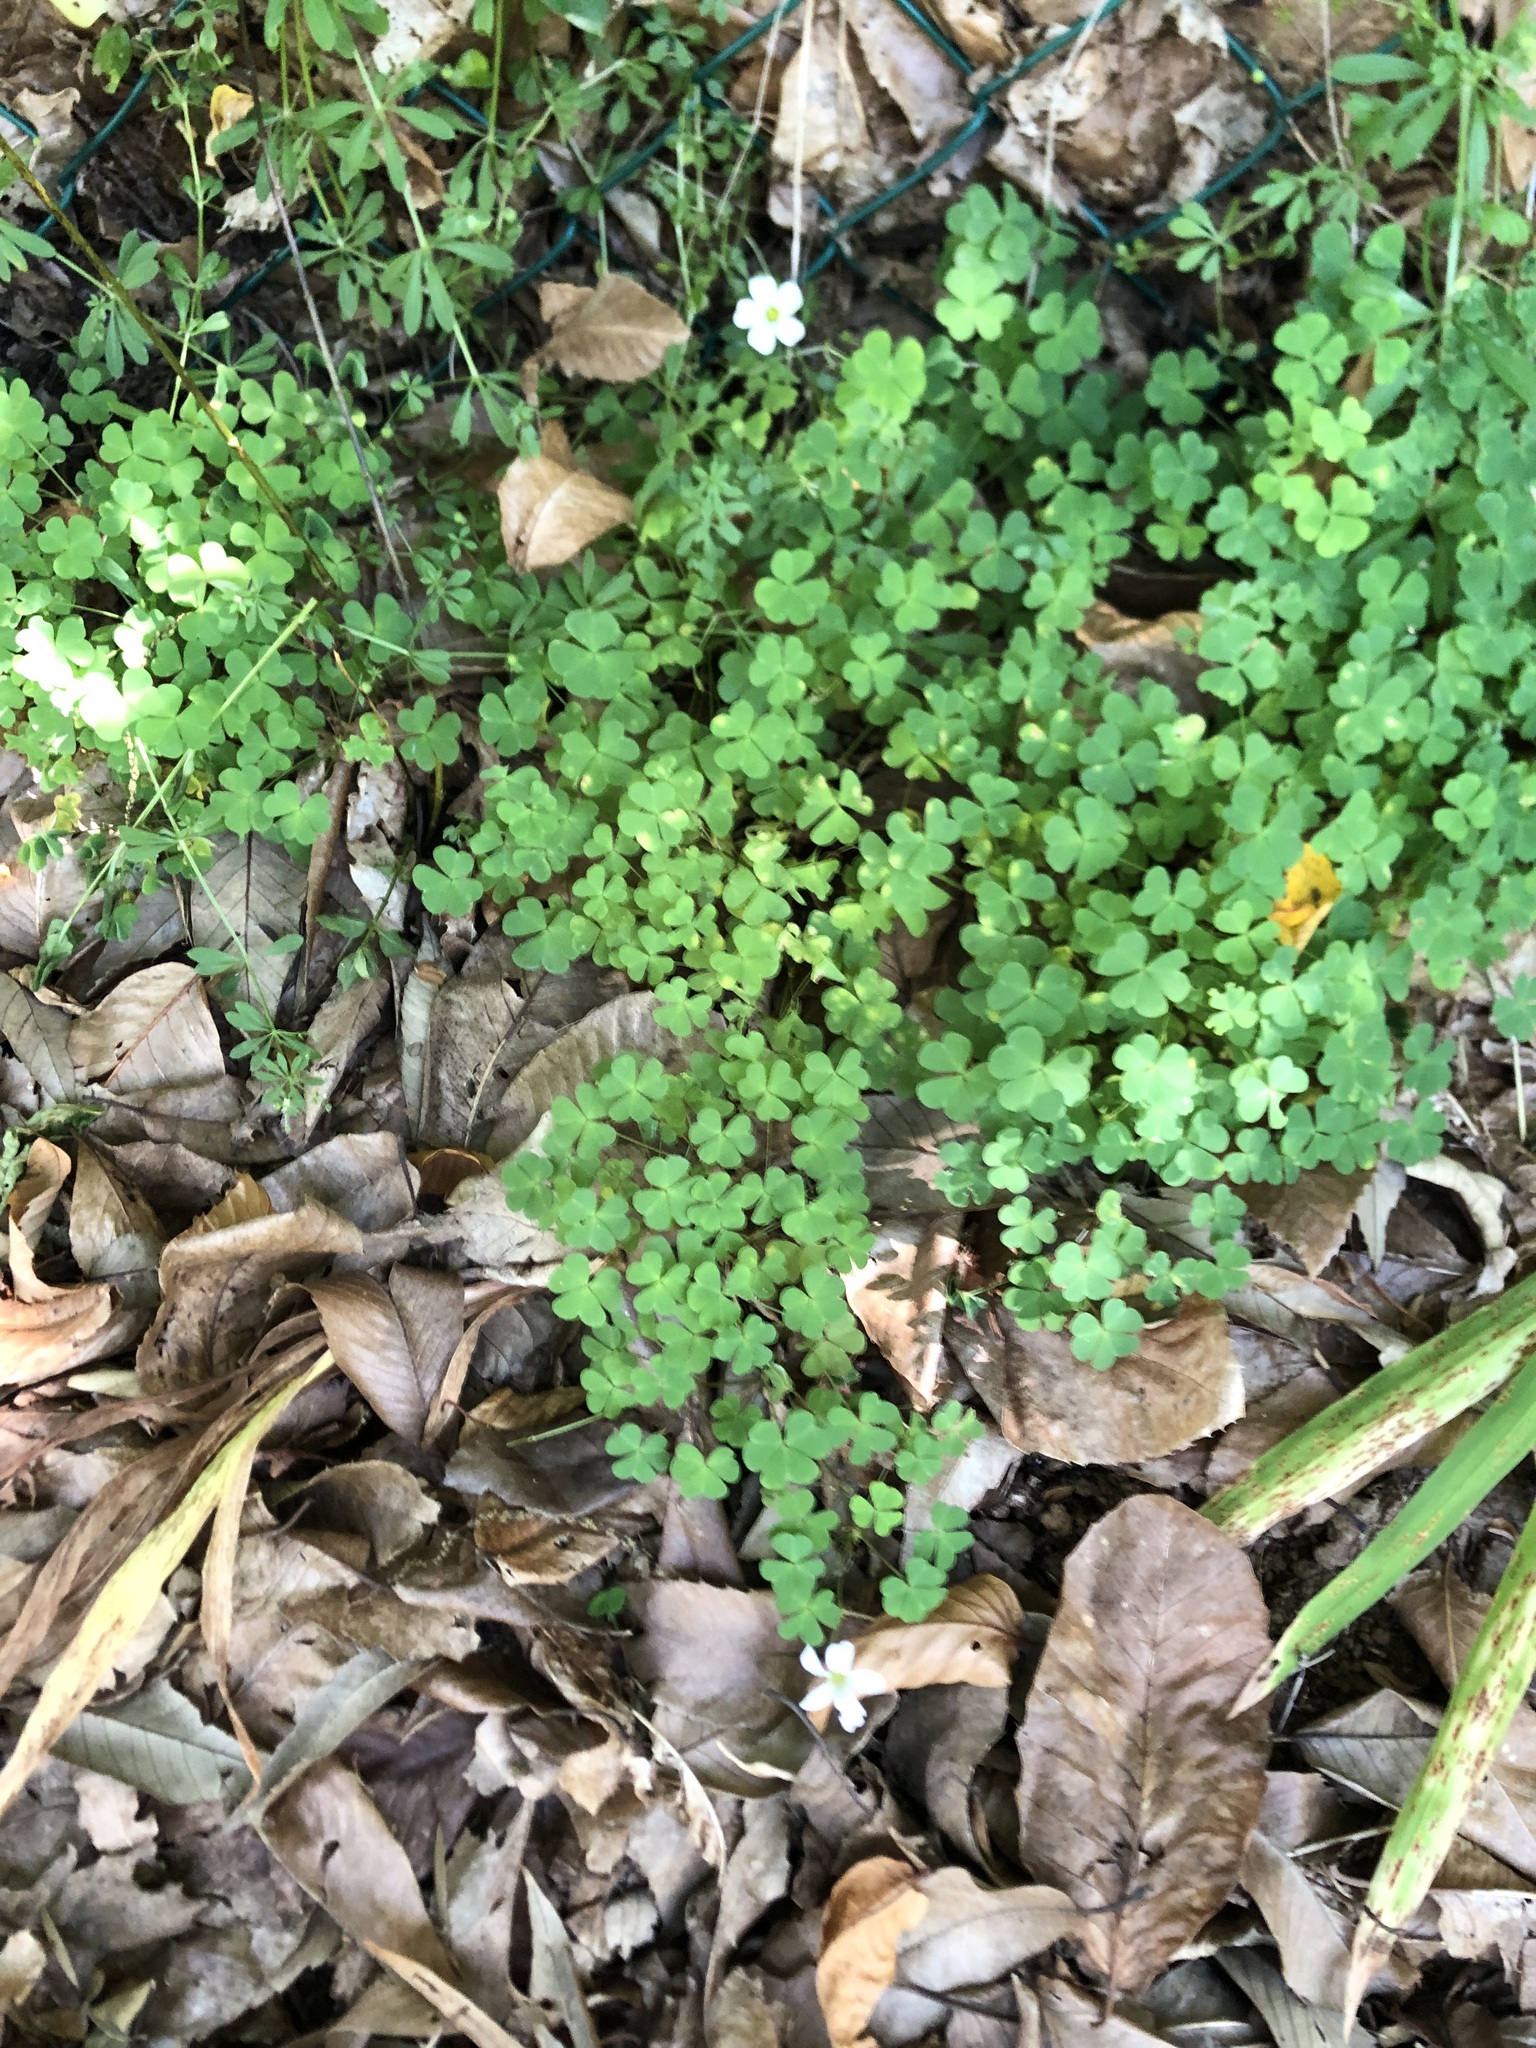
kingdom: Plantae
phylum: Tracheophyta
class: Magnoliopsida
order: Oxalidales
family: Oxalidaceae
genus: Oxalis
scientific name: Oxalis incarnata
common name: Pale pink-sorrel
